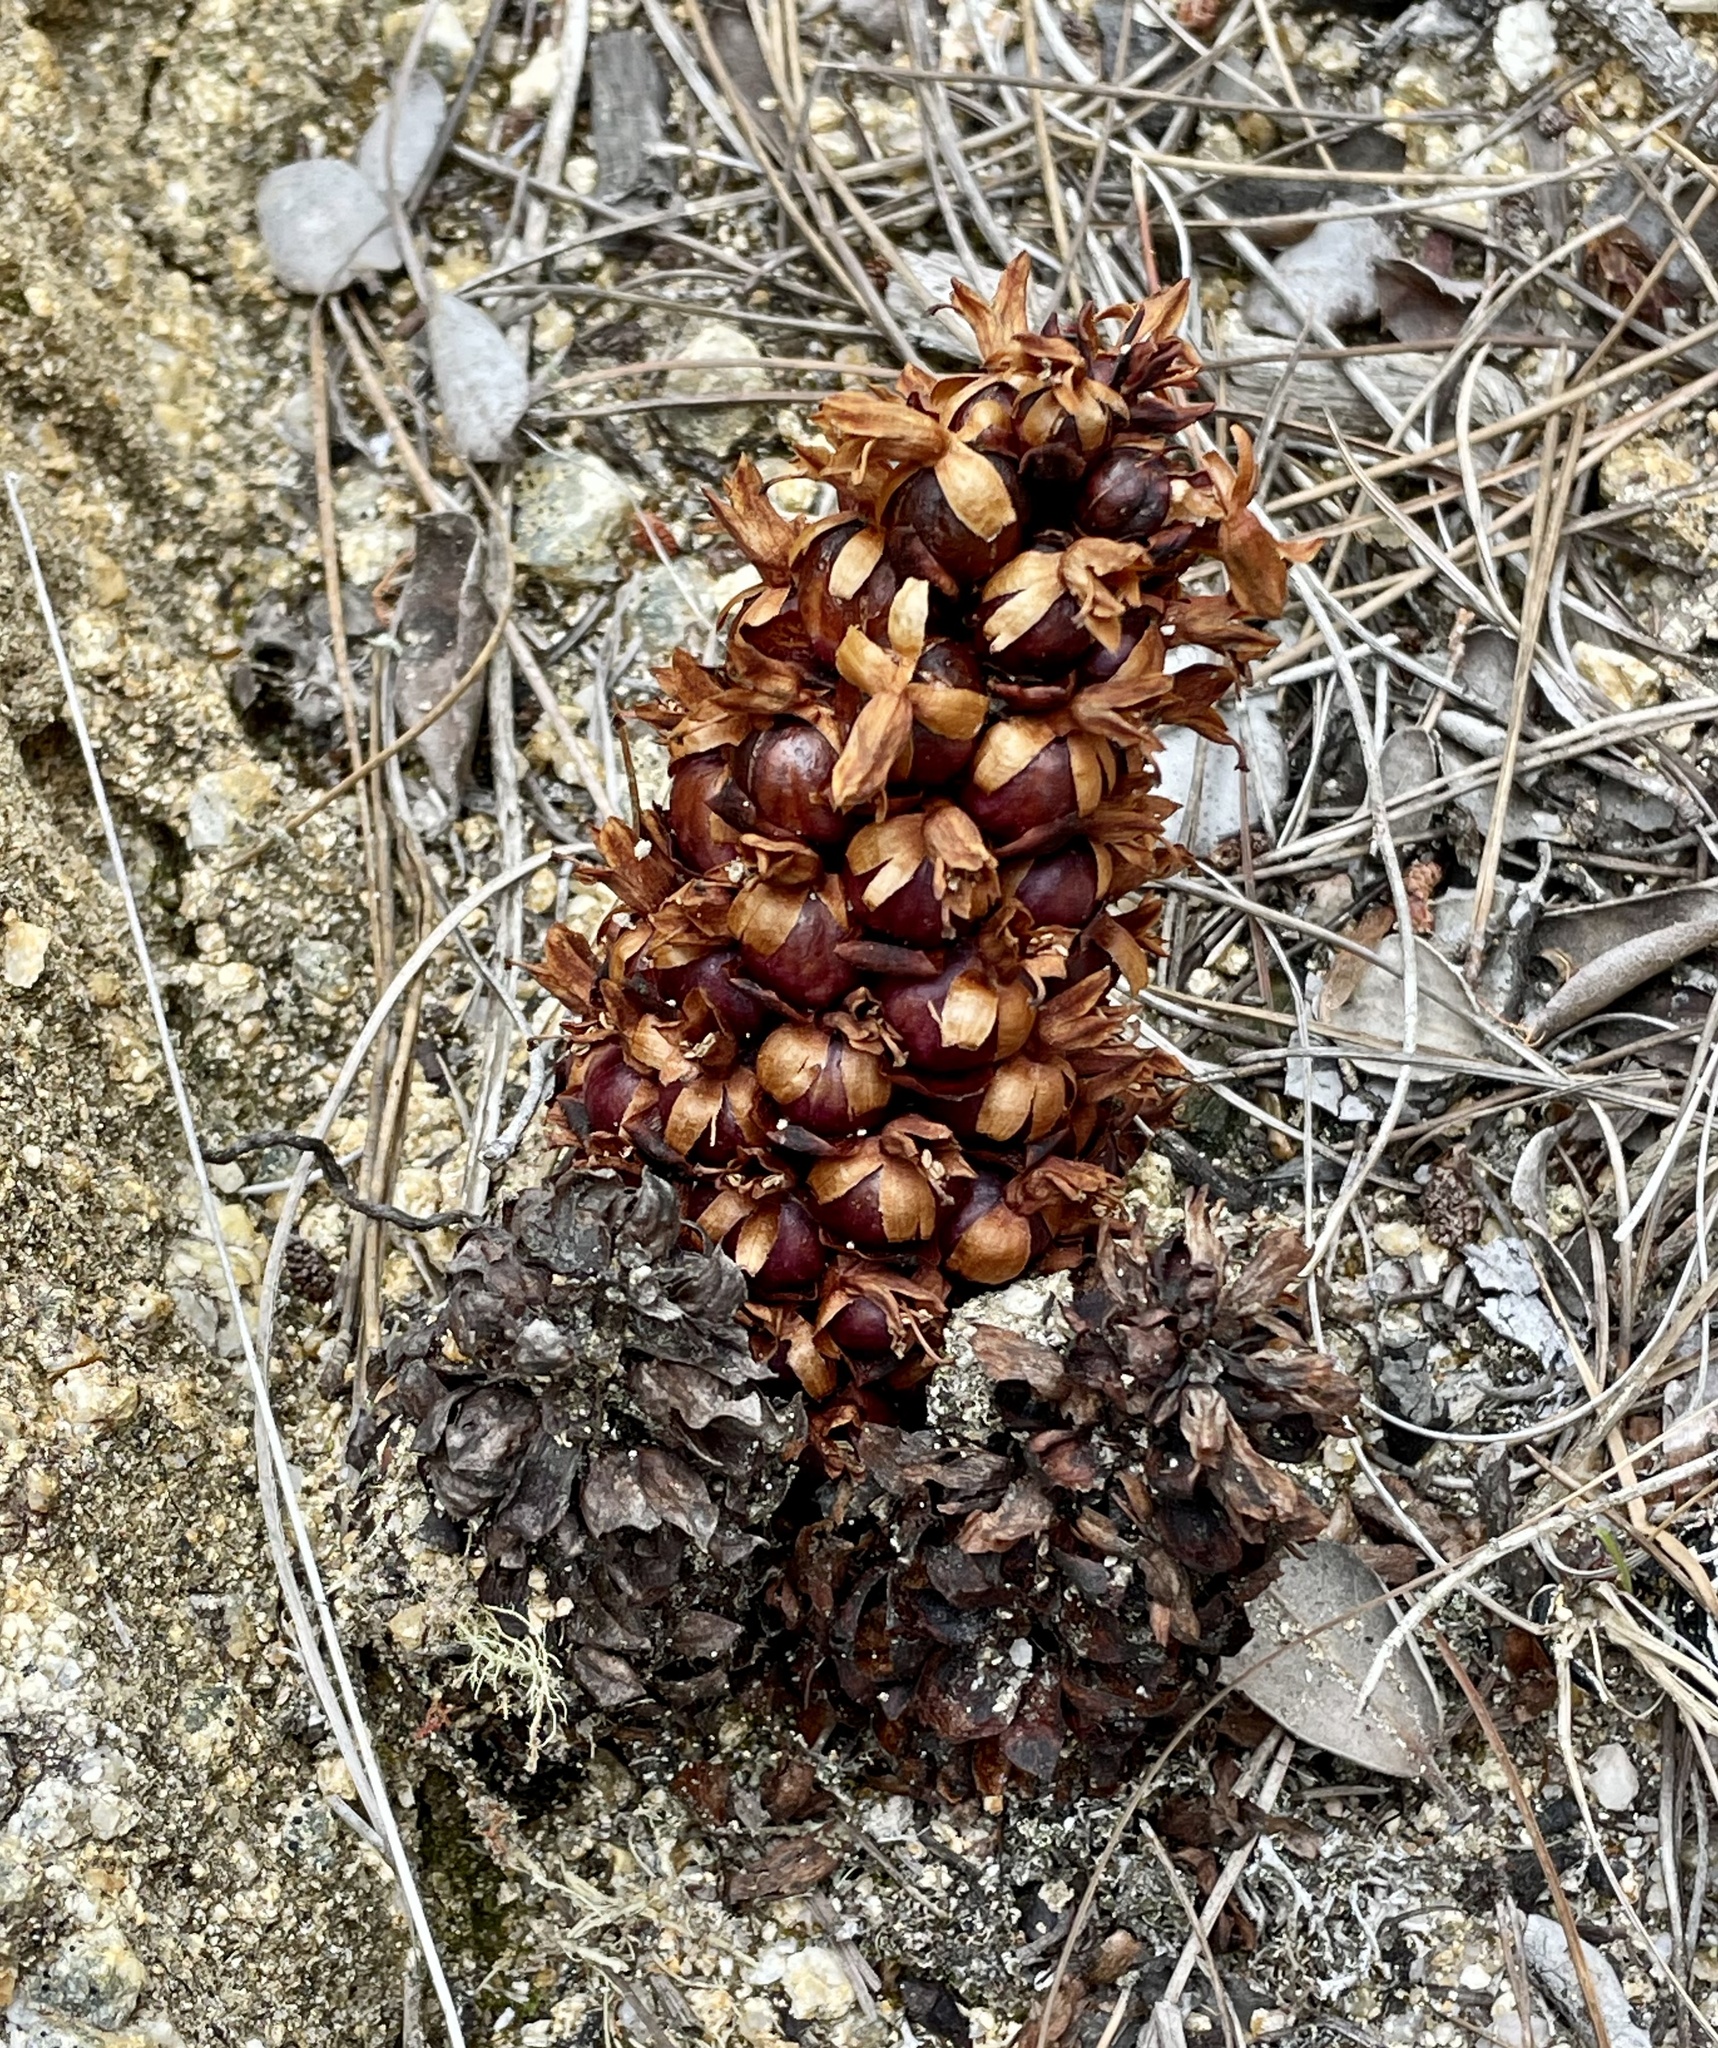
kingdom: Plantae
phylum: Tracheophyta
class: Magnoliopsida
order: Lamiales
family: Orobanchaceae
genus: Kopsiopsis
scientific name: Kopsiopsis strobilacea
